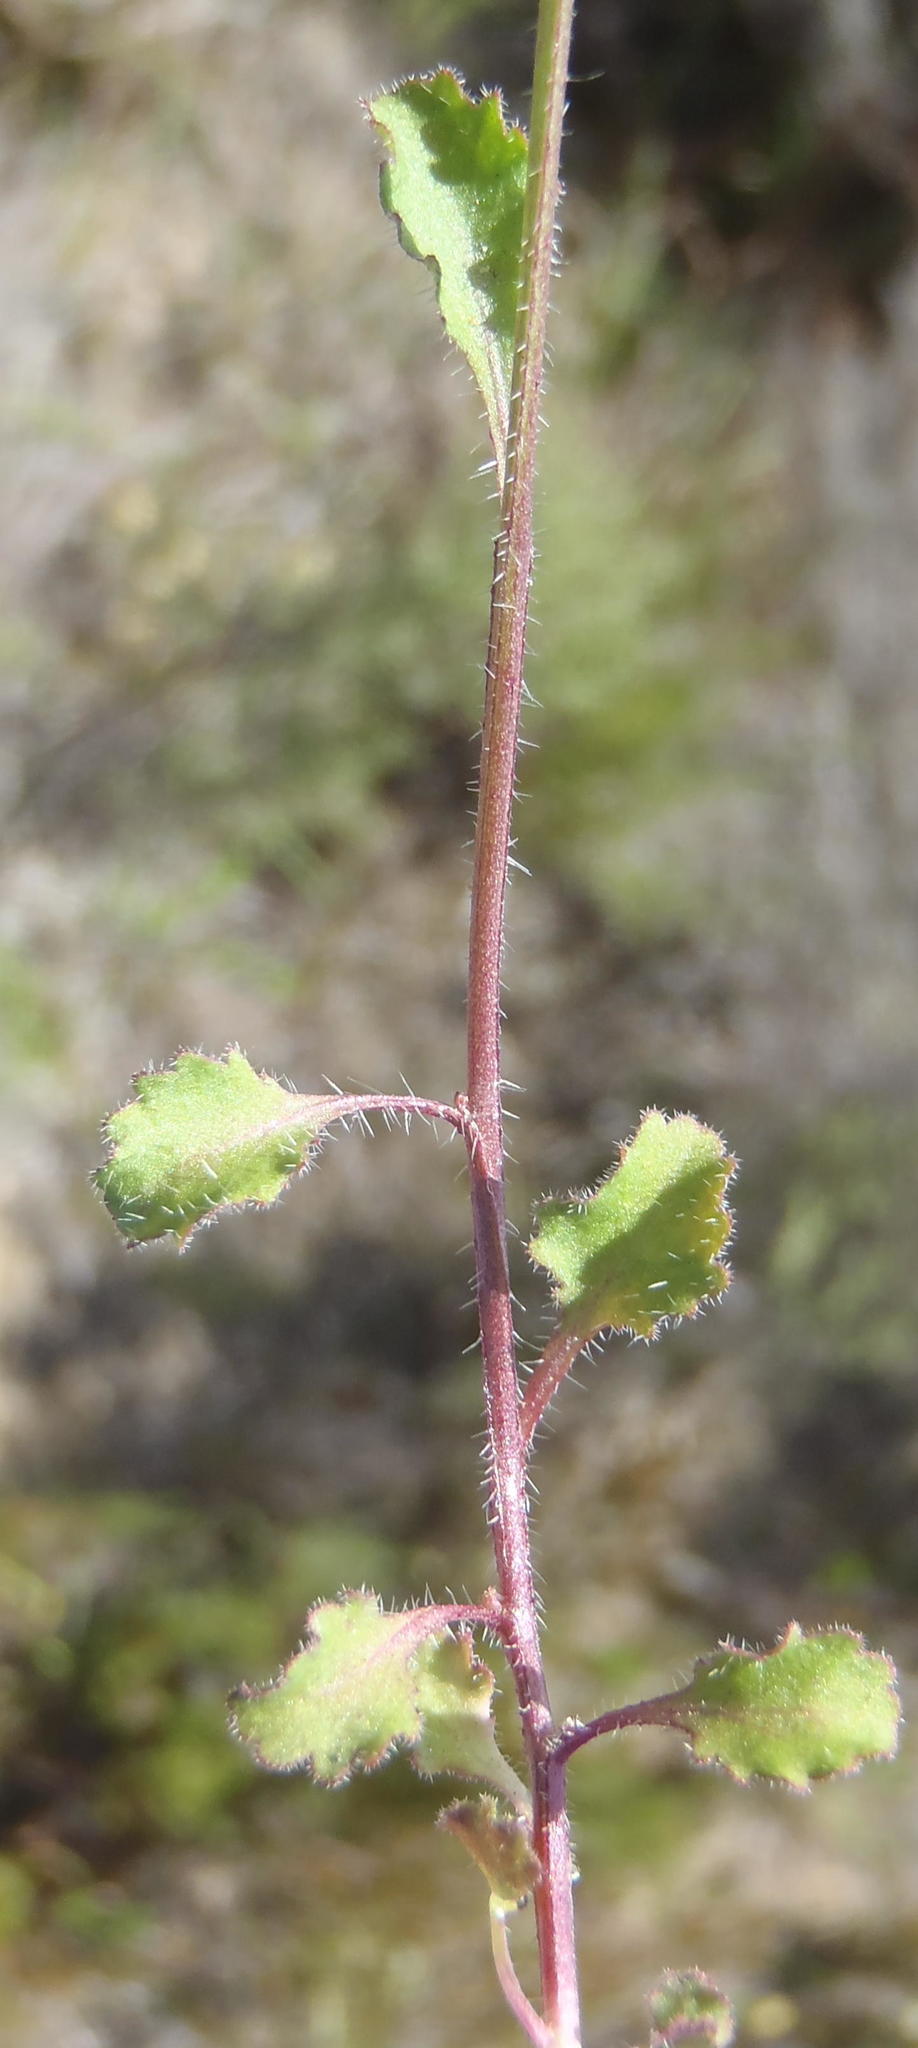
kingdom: Plantae
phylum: Tracheophyta
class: Magnoliopsida
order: Asterales
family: Campanulaceae
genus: Lobelia
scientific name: Lobelia flaccida
